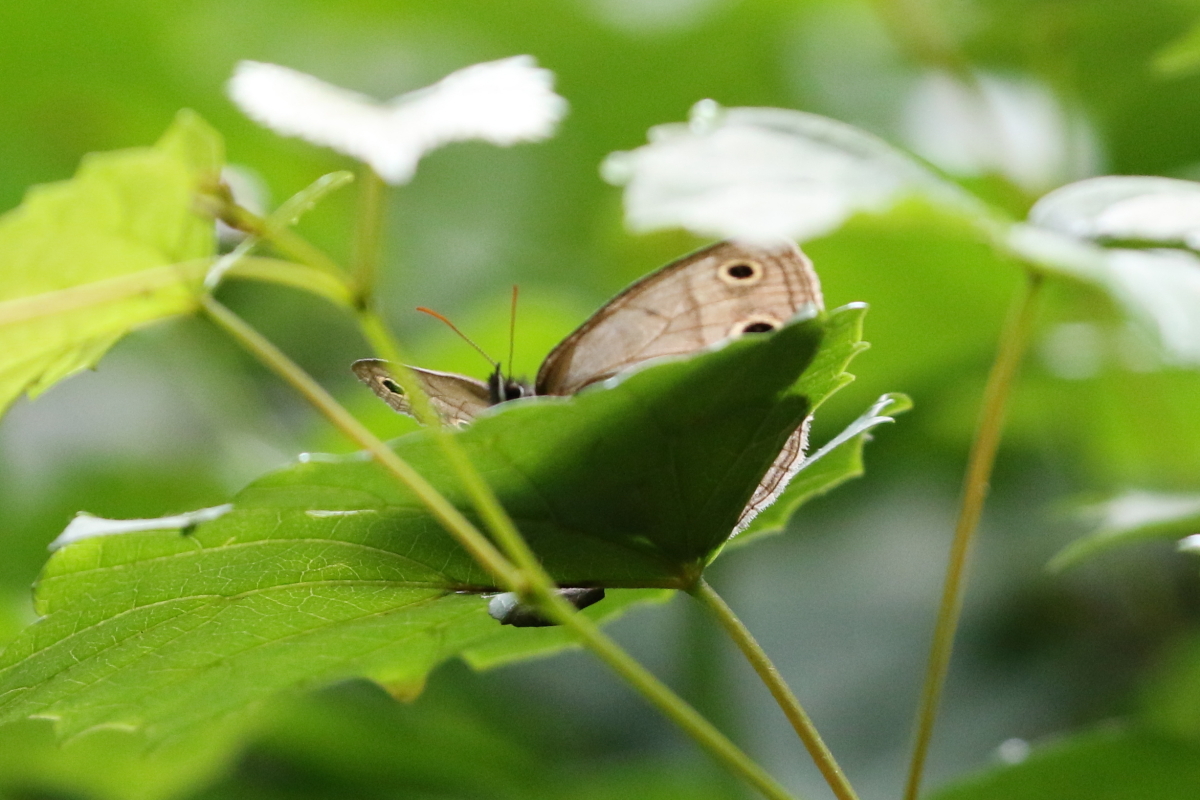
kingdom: Animalia
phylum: Arthropoda
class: Insecta
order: Lepidoptera
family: Nymphalidae
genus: Euptychia
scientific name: Euptychia cymela
